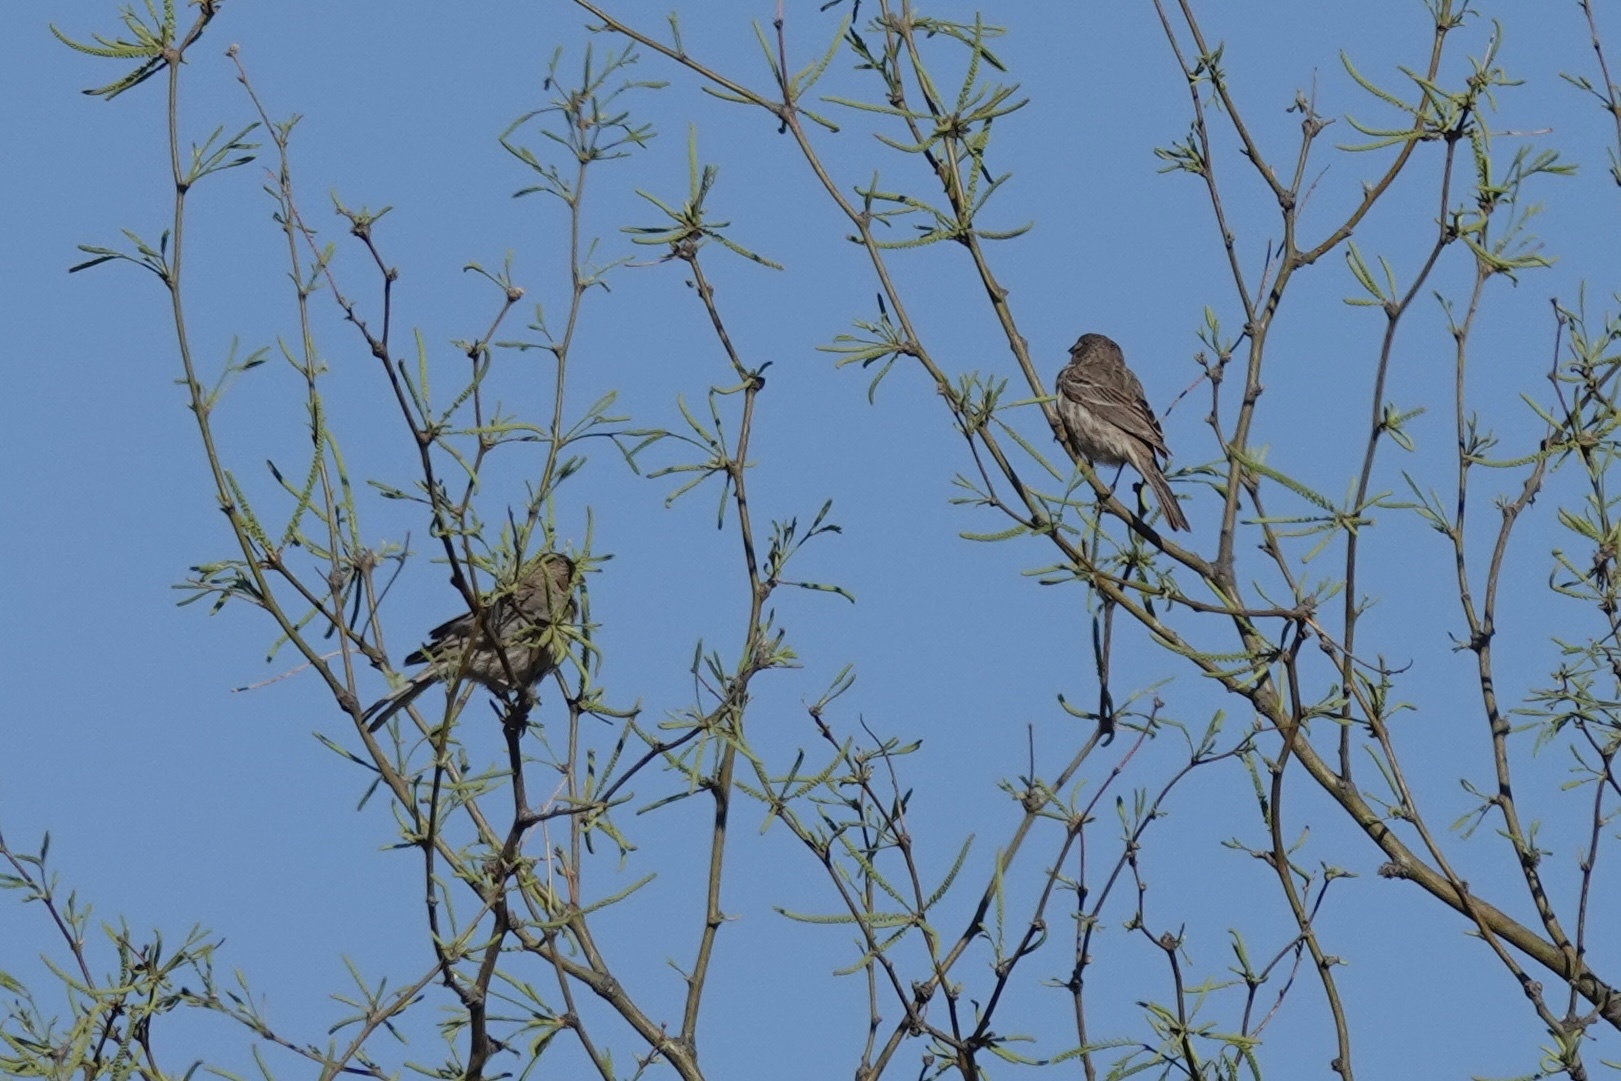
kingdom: Animalia
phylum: Chordata
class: Aves
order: Passeriformes
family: Fringillidae
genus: Haemorhous
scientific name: Haemorhous mexicanus
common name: House finch
